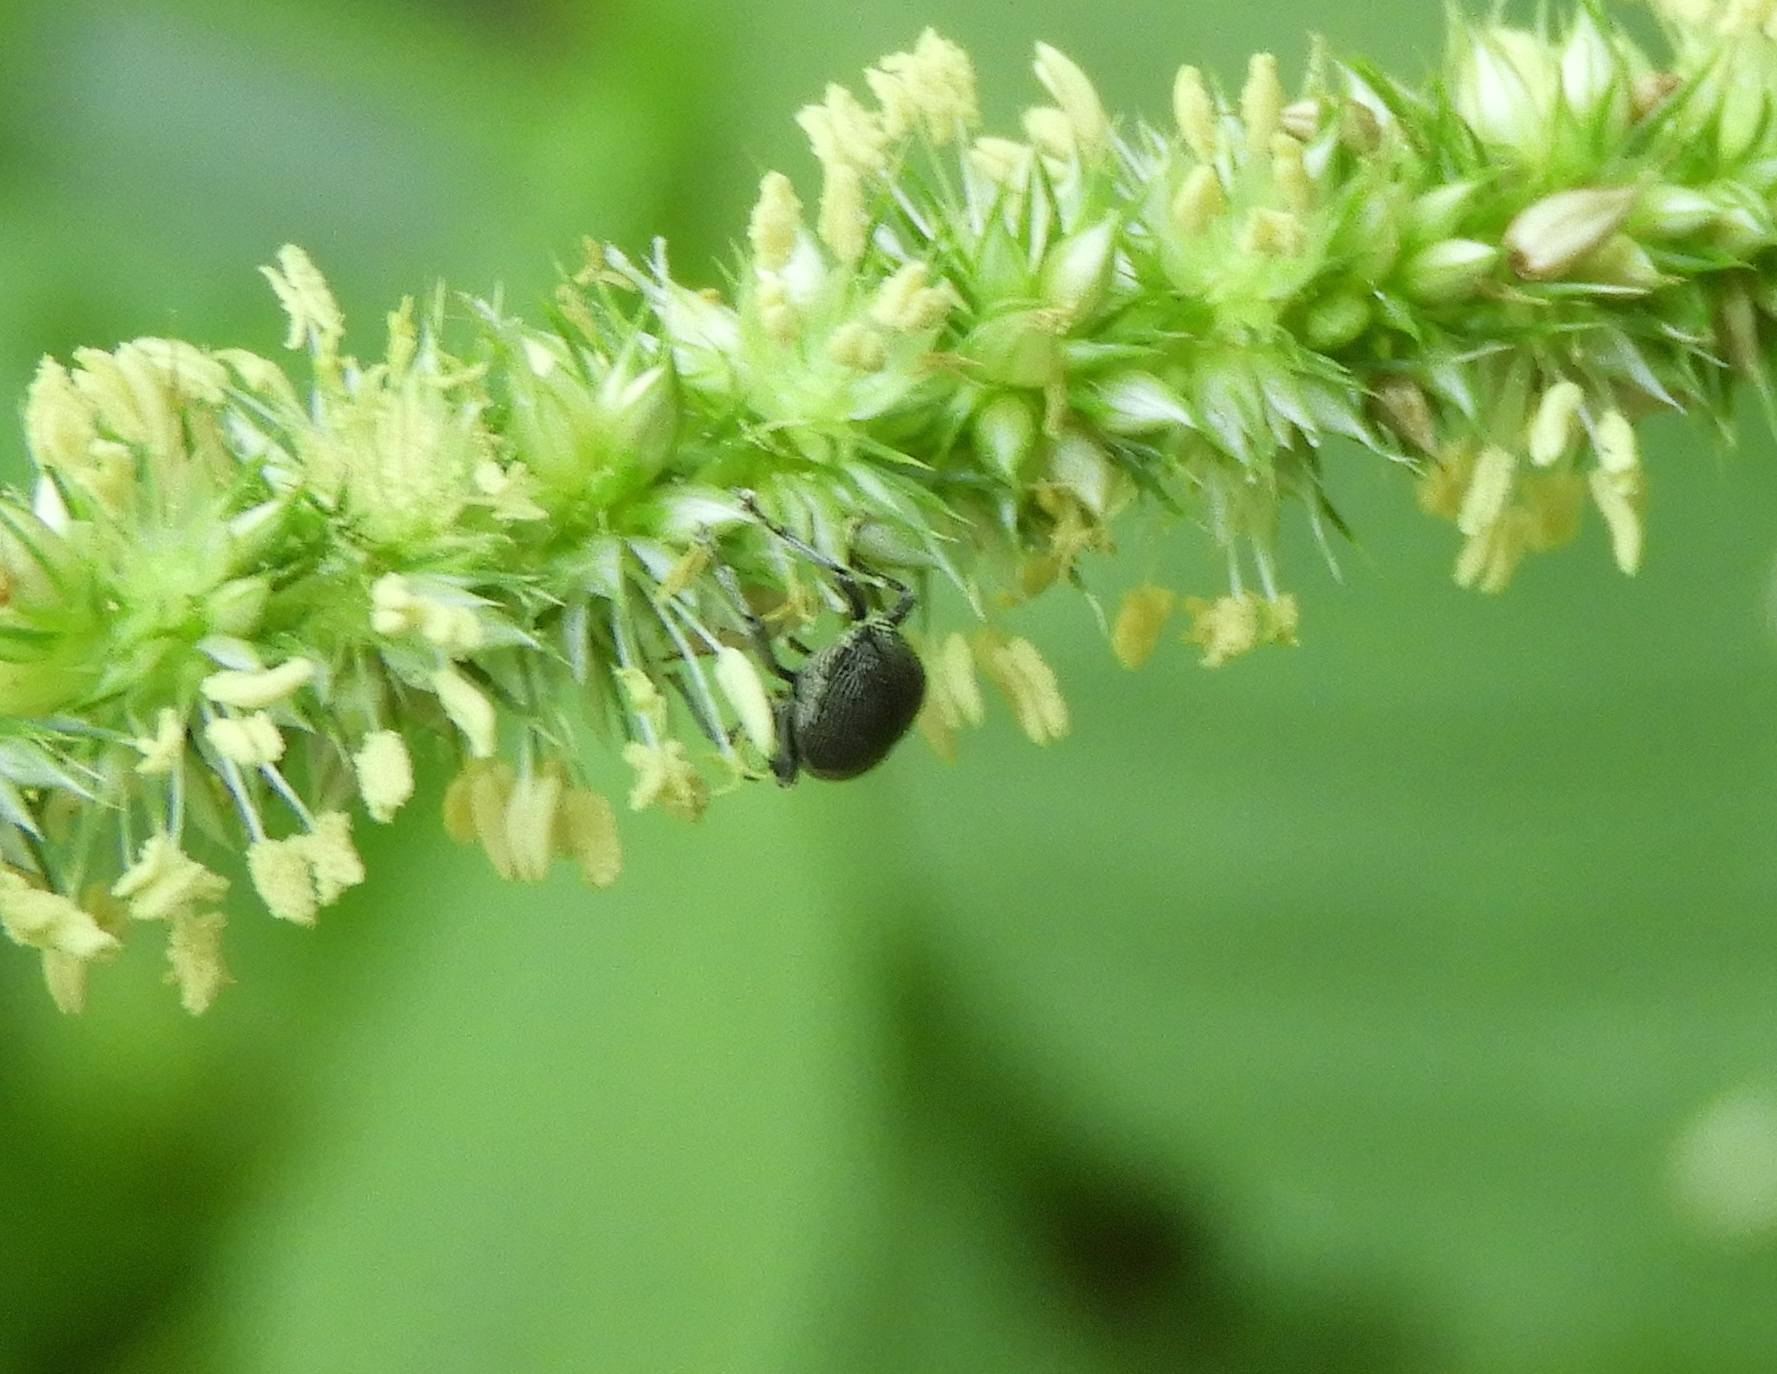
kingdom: Plantae
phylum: Tracheophyta
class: Magnoliopsida
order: Caryophyllales
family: Amaranthaceae
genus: Amaranthus
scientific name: Amaranthus
